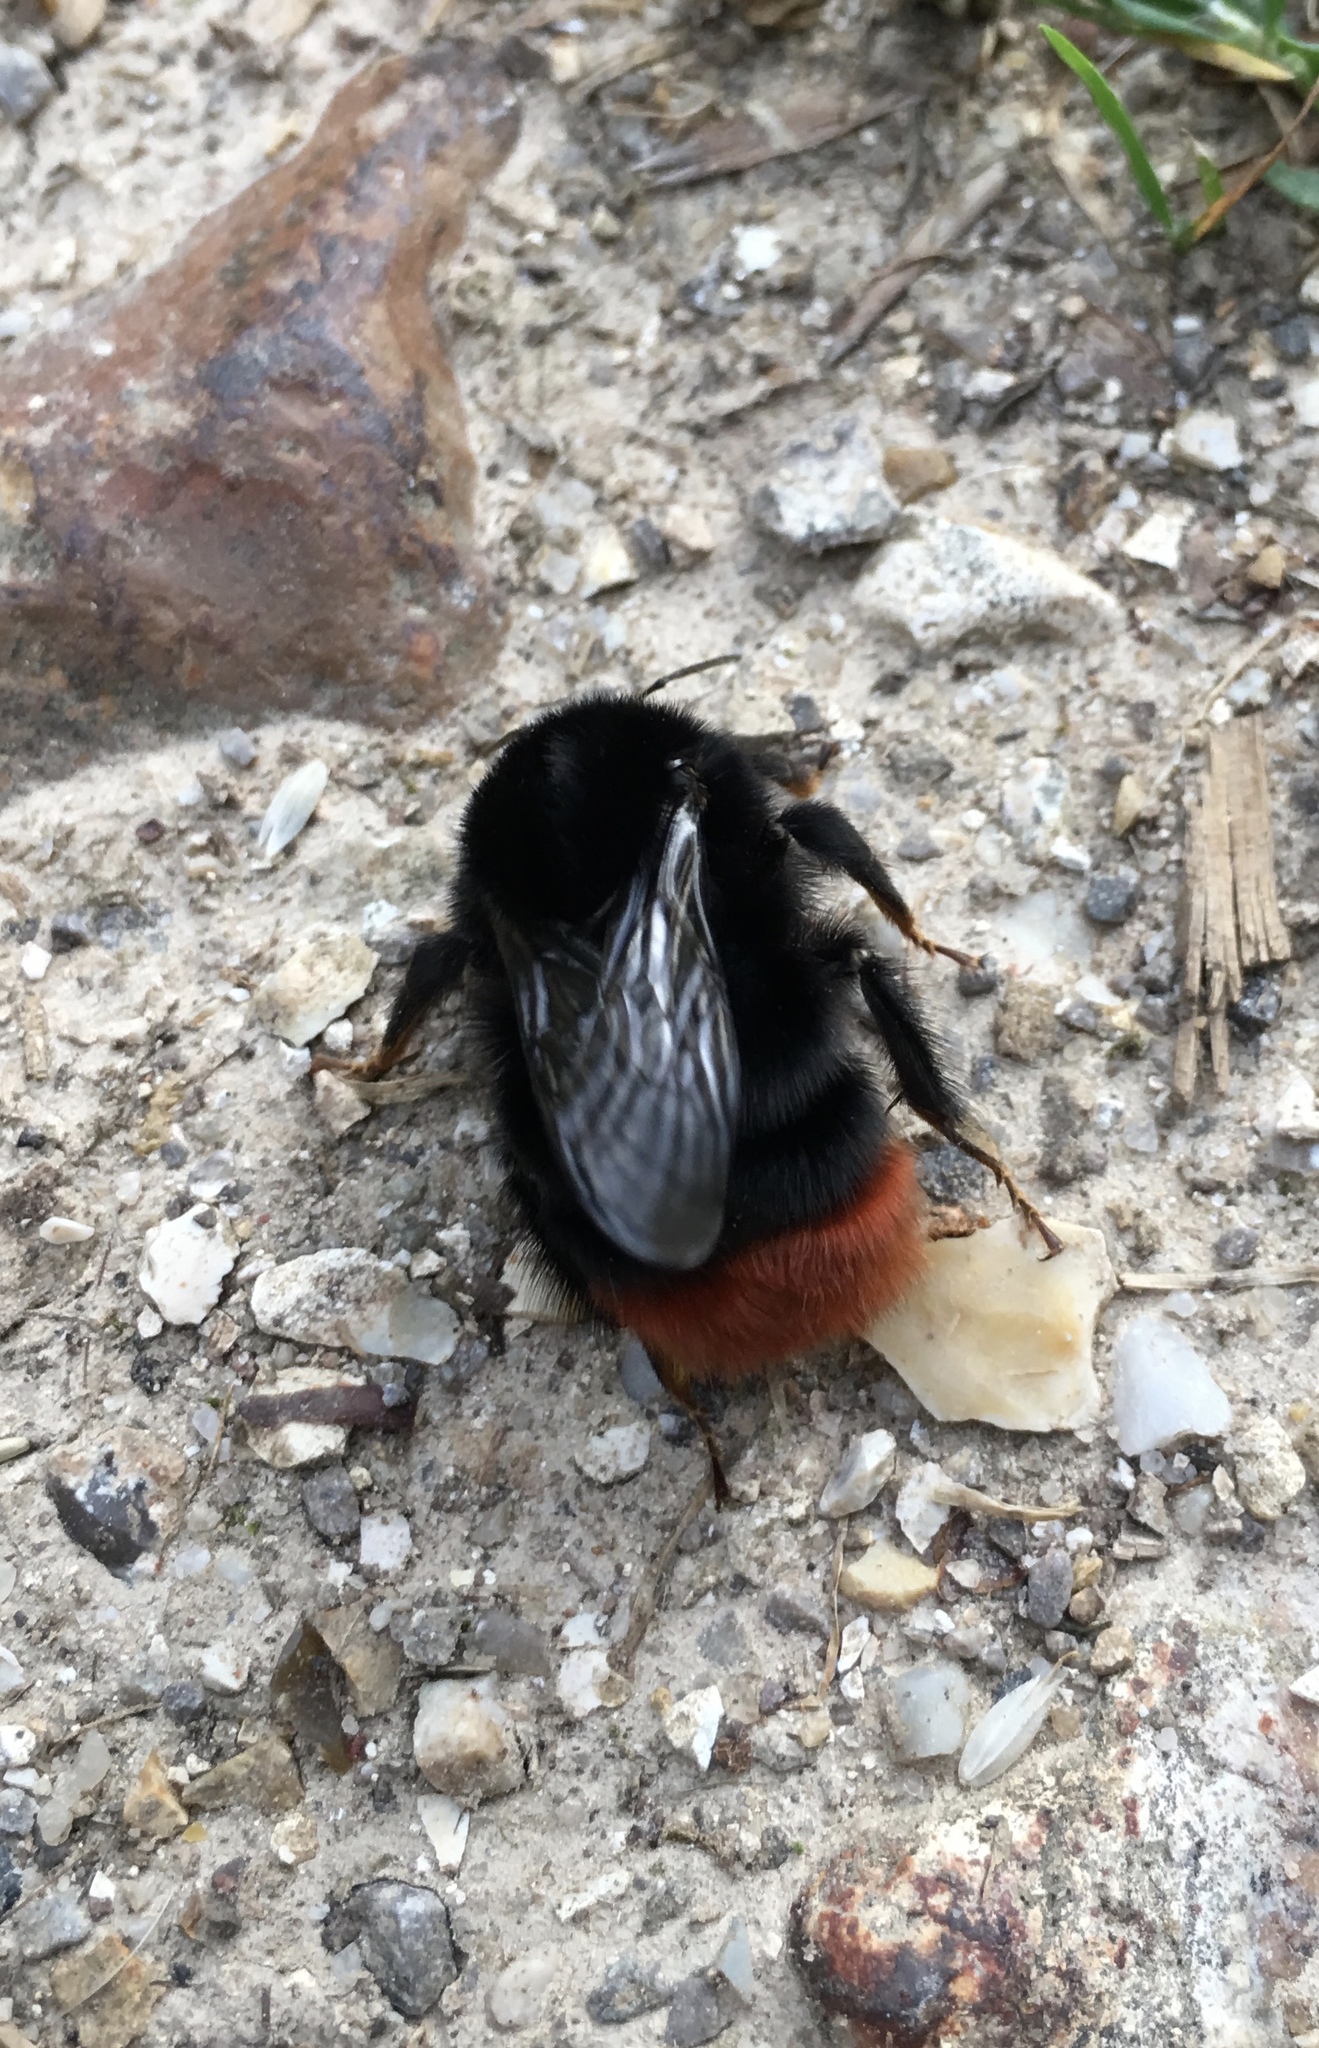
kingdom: Animalia
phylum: Arthropoda
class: Insecta
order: Hymenoptera
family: Apidae
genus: Bombus
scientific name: Bombus lapidarius
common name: Large red-tailed humble-bee
